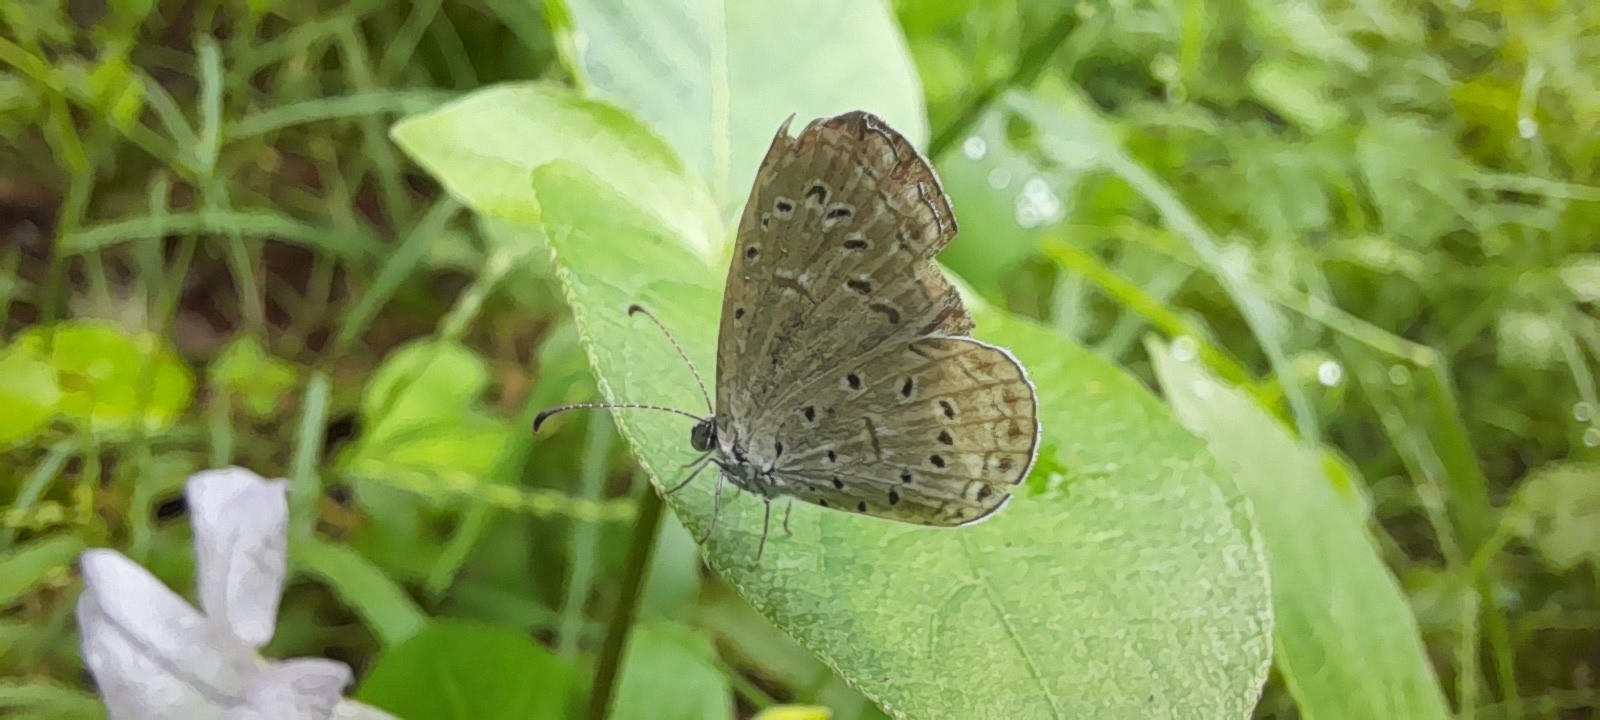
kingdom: Animalia
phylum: Arthropoda
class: Insecta
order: Lepidoptera
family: Lycaenidae
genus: Zizula
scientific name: Zizula hylax
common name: Gaika blue
